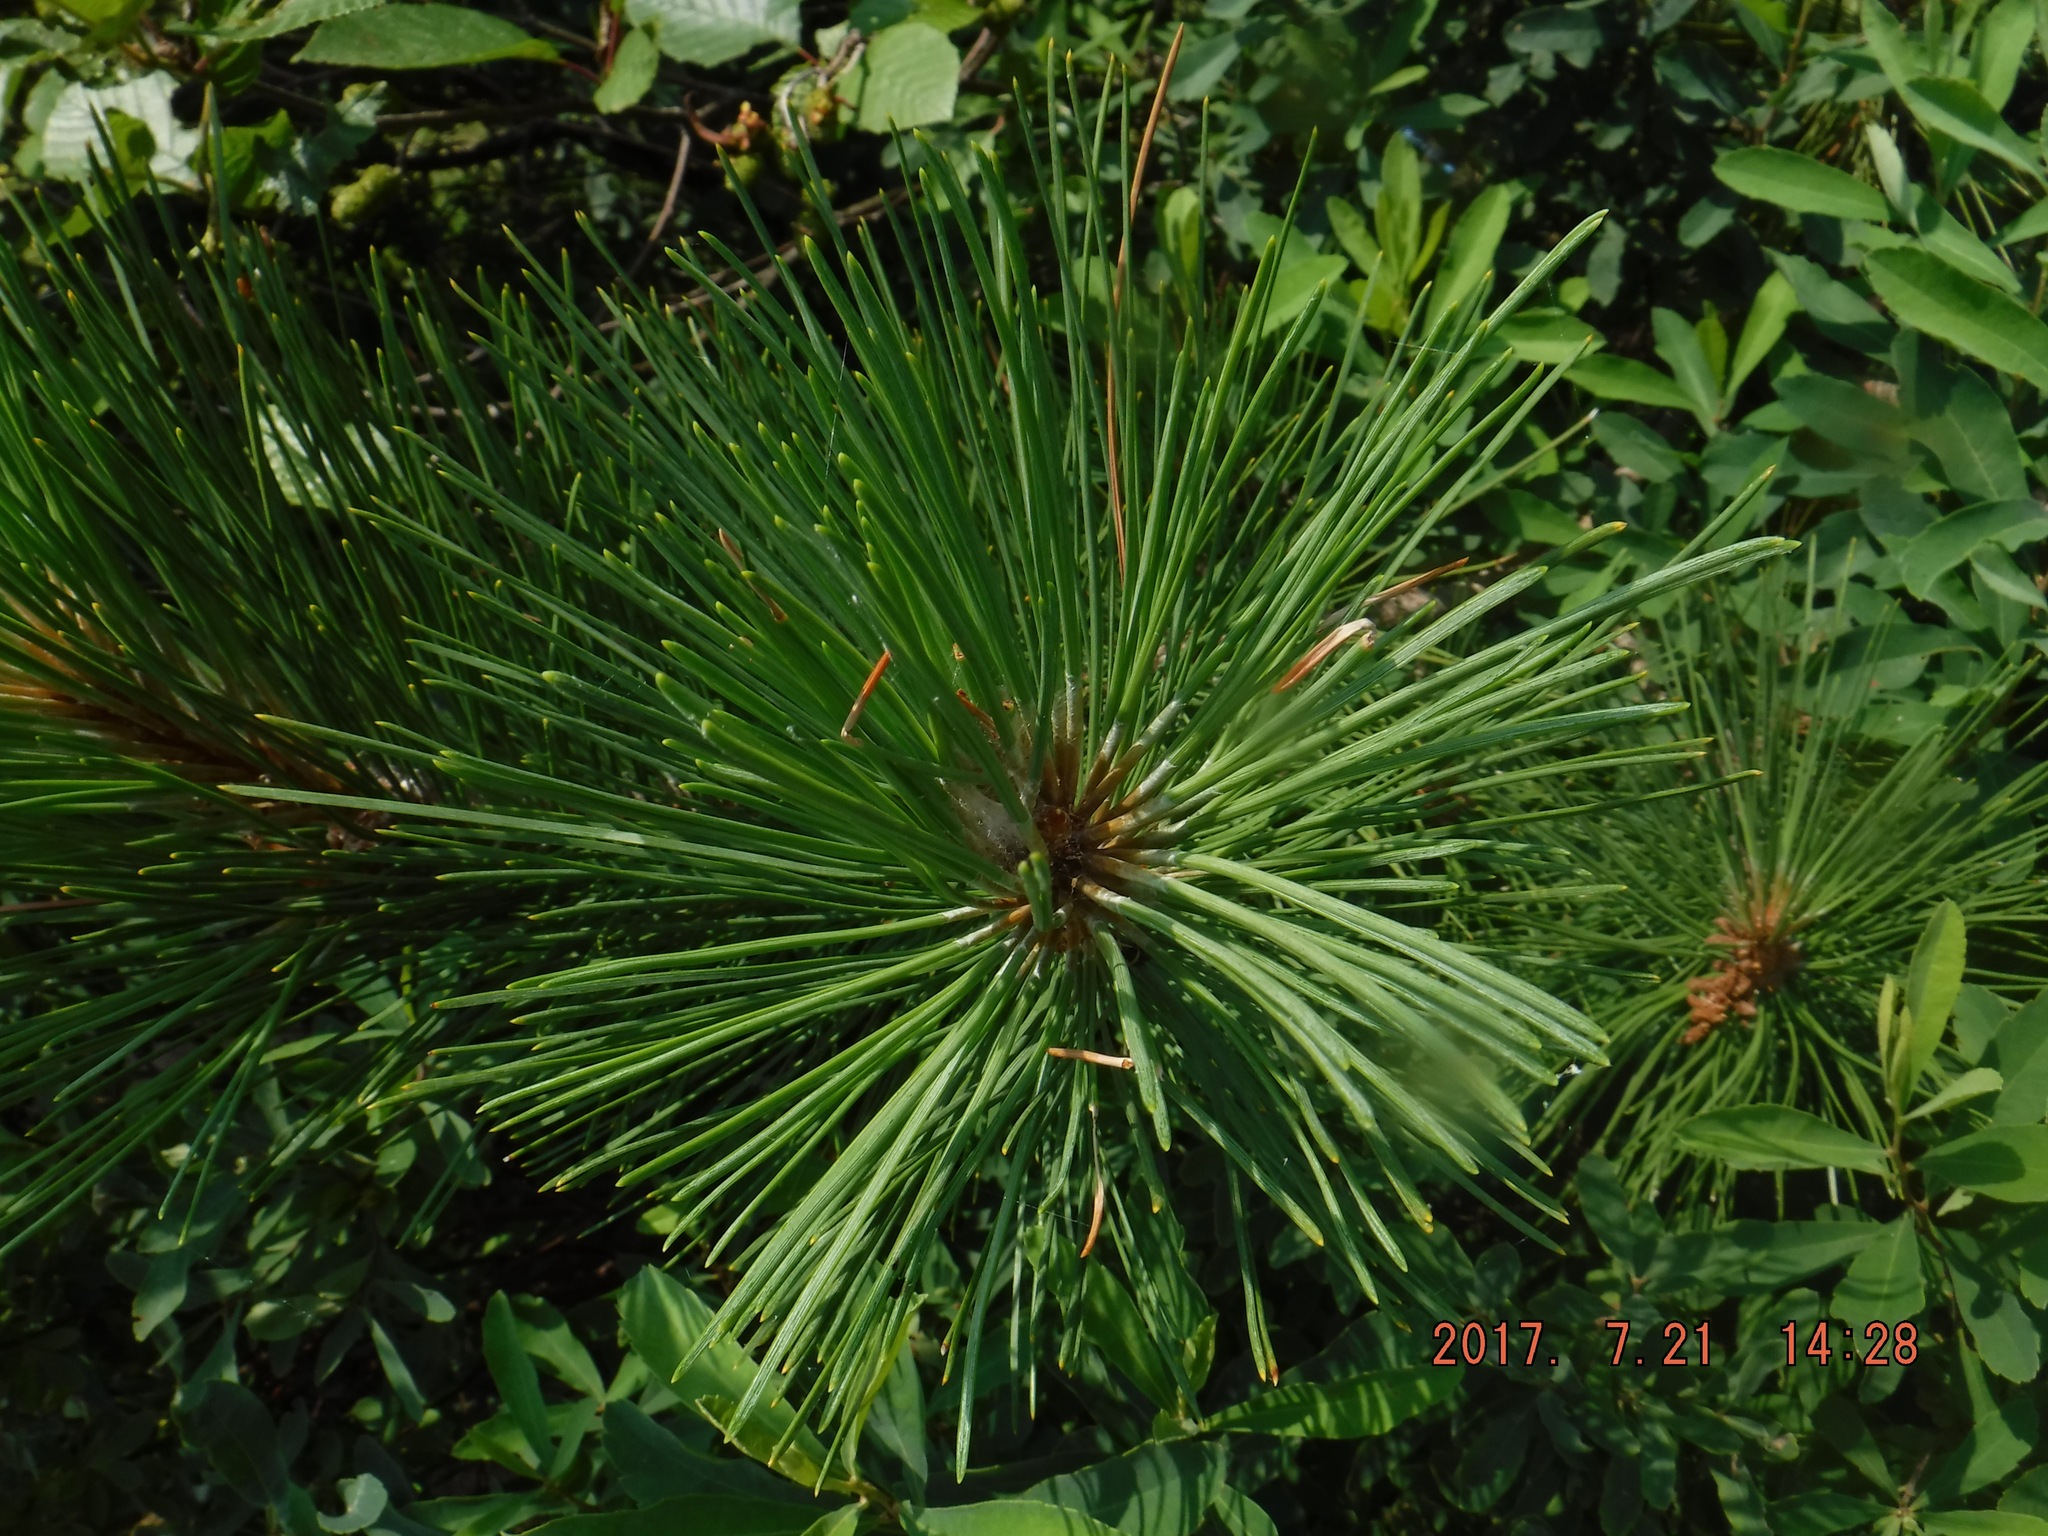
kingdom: Plantae
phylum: Tracheophyta
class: Pinopsida
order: Pinales
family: Pinaceae
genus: Pinus
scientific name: Pinus resinosa
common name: Norway pine
